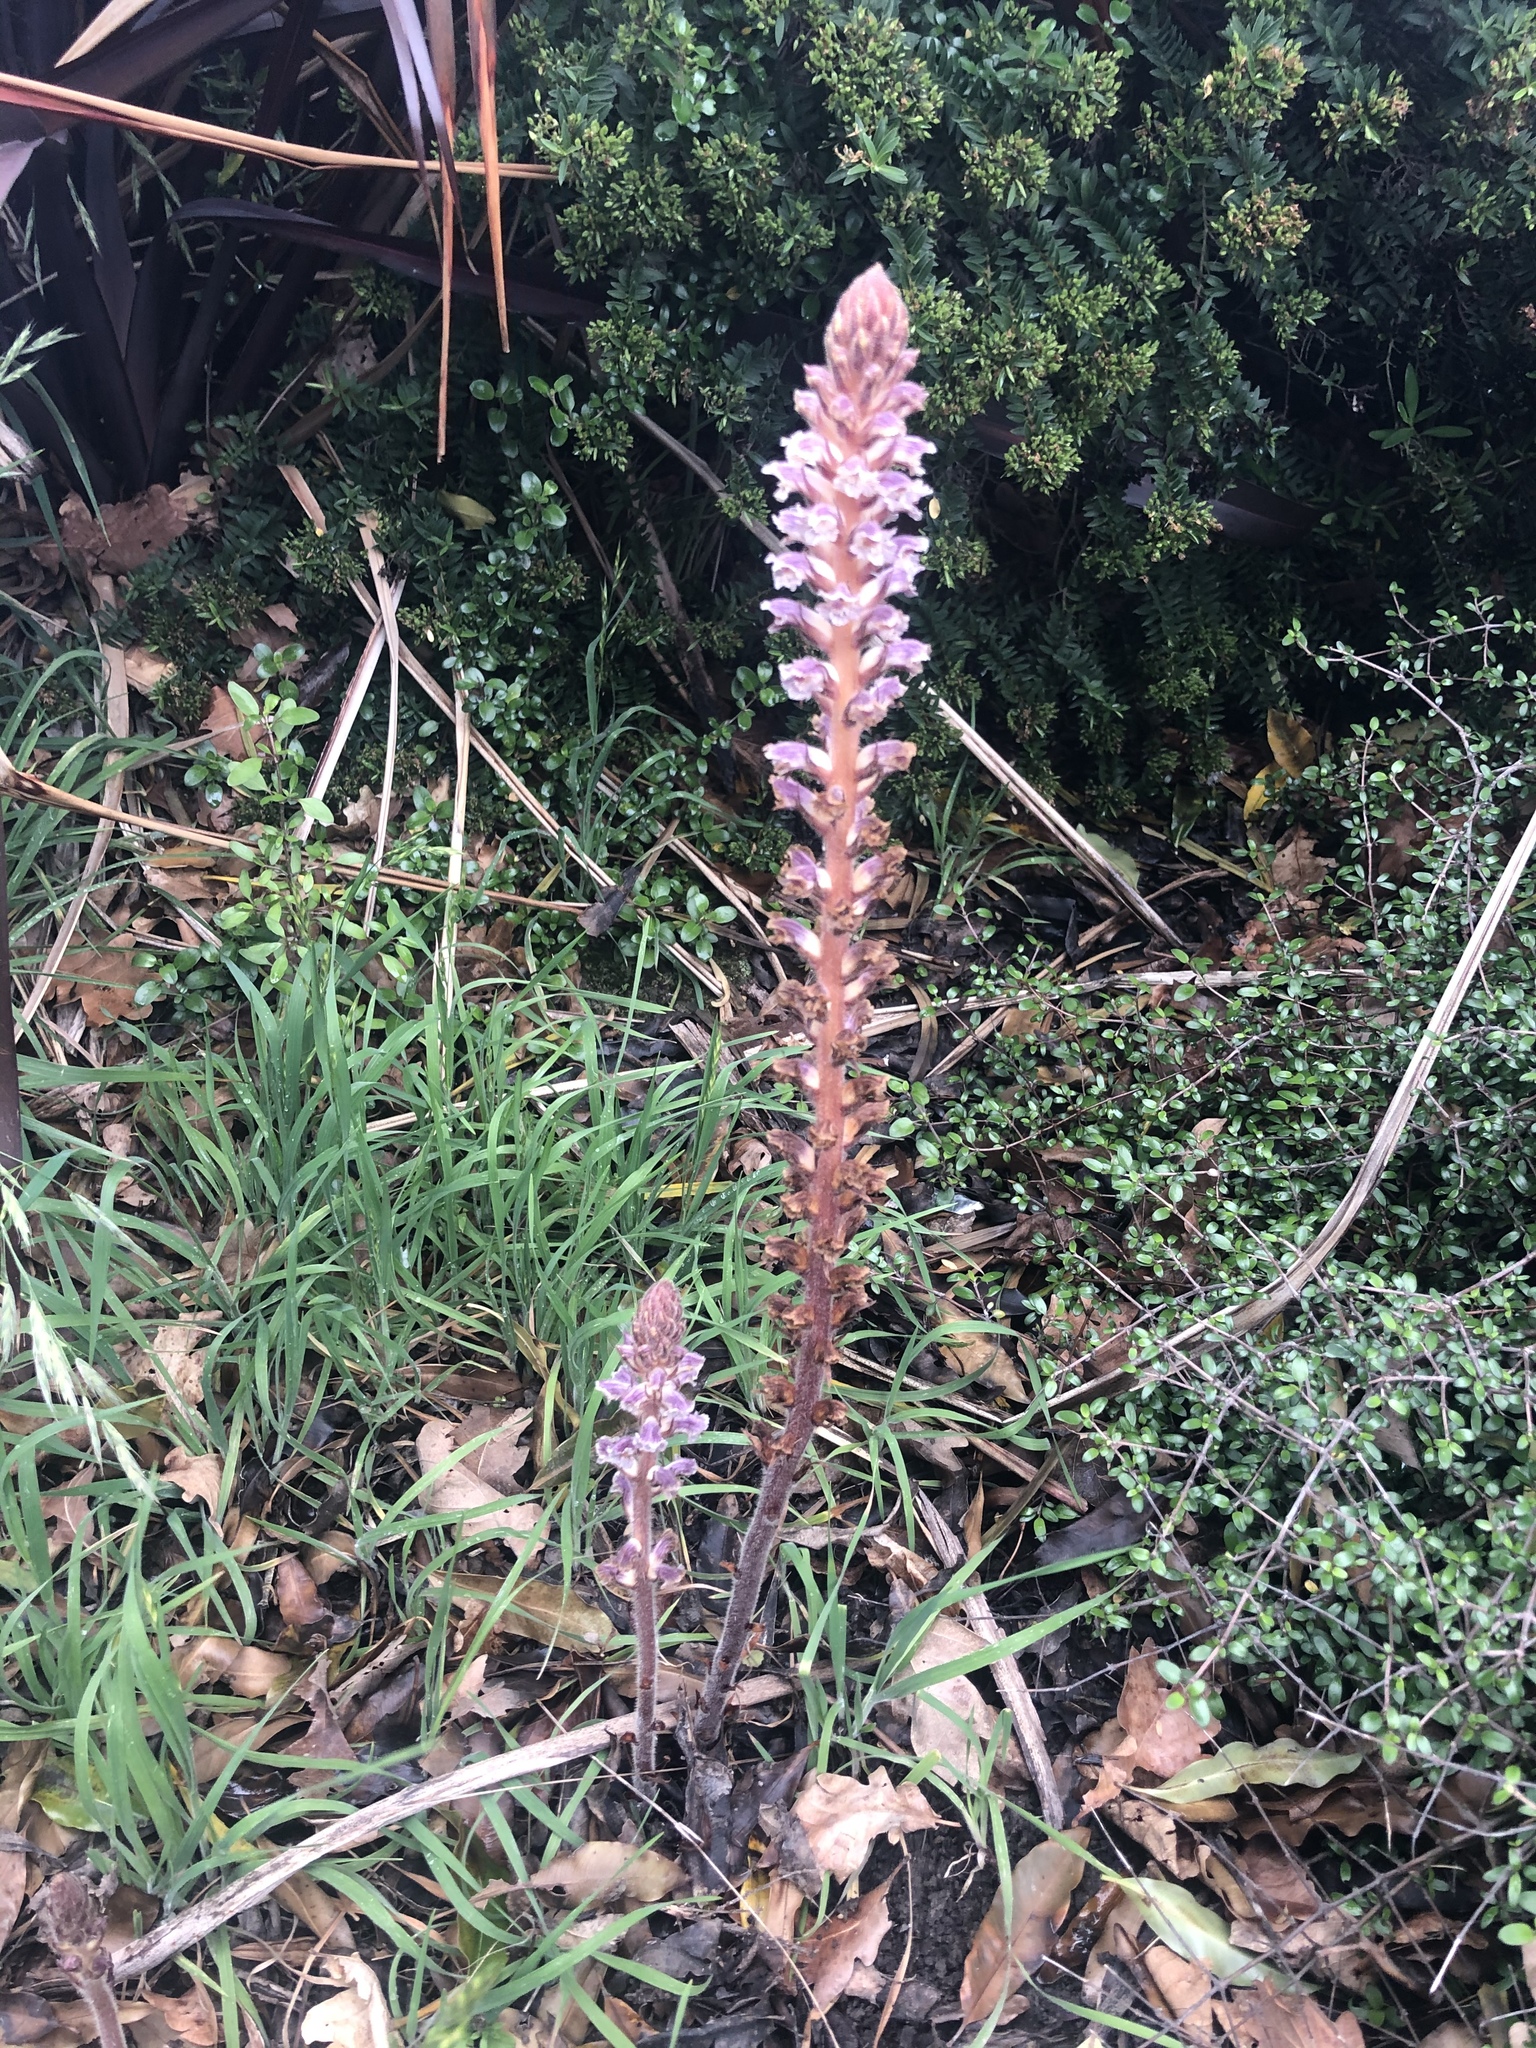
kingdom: Plantae
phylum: Tracheophyta
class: Magnoliopsida
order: Lamiales
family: Orobanchaceae
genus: Orobanche
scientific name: Orobanche minor
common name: Common broomrape
